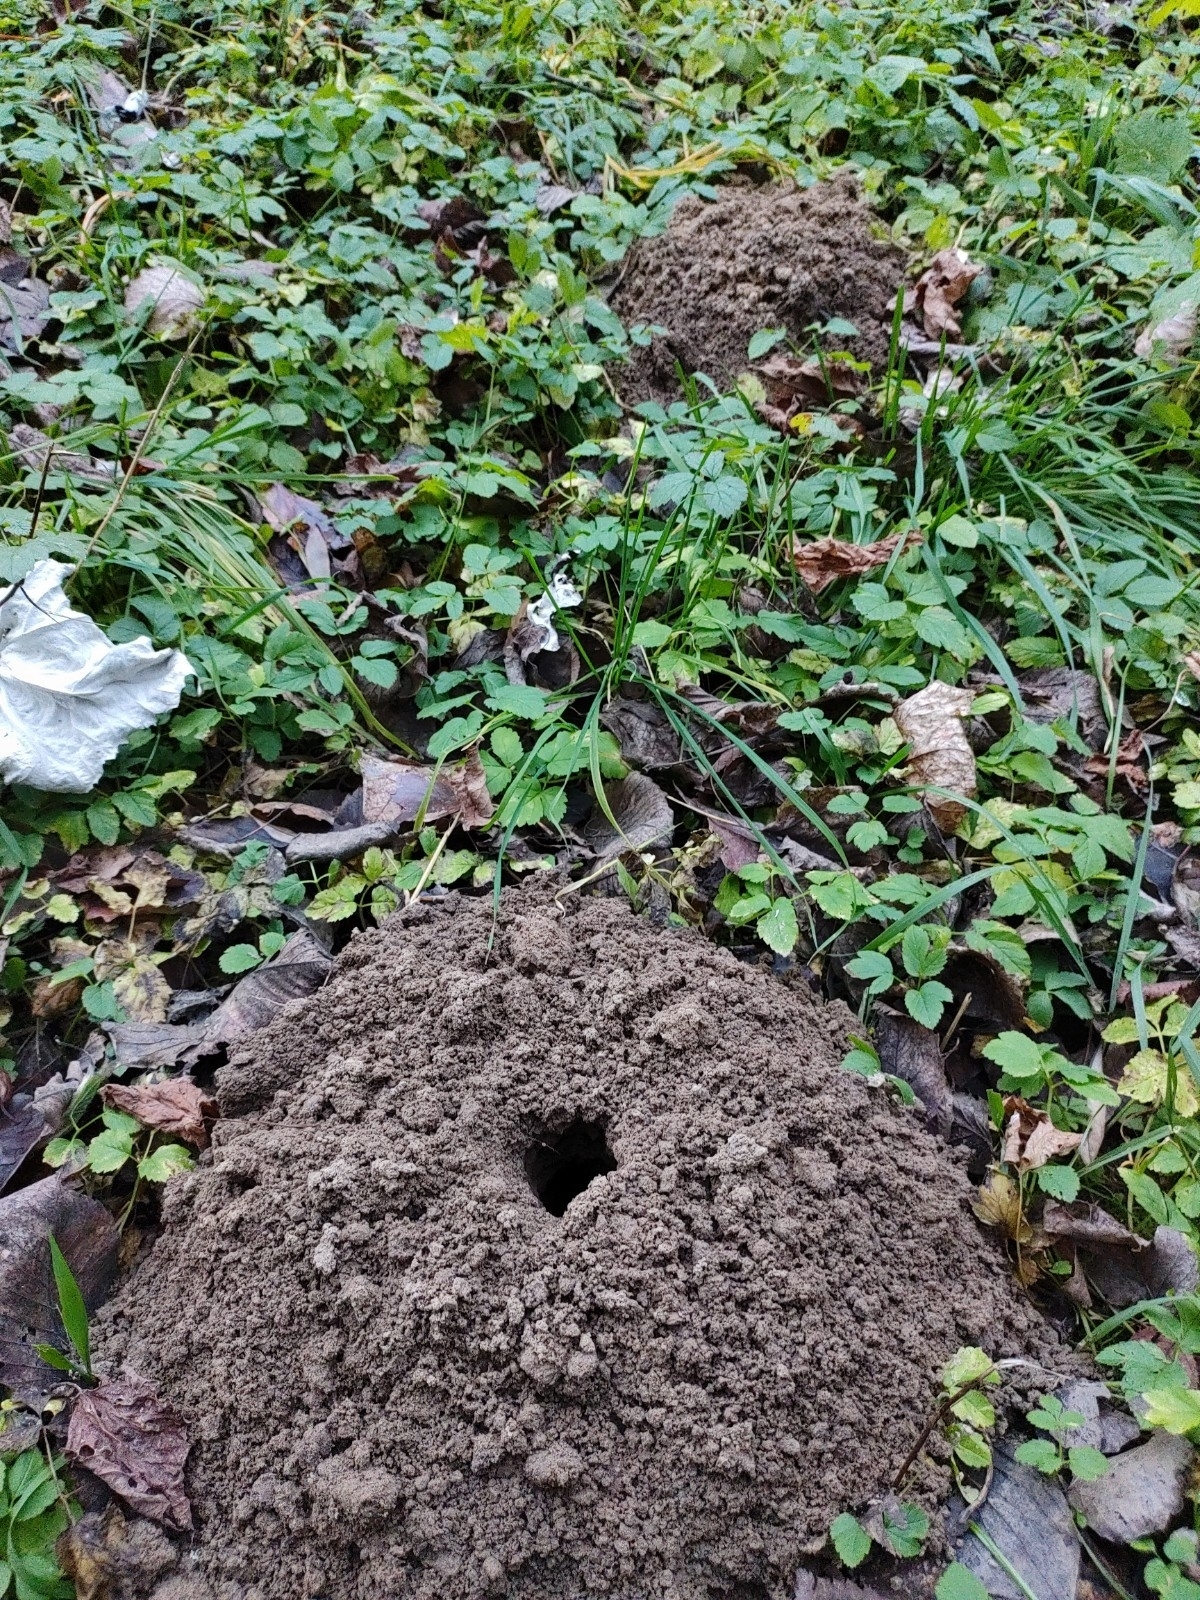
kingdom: Animalia
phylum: Chordata
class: Mammalia
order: Soricomorpha
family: Talpidae
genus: Talpa
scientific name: Talpa europaea
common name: European mole
